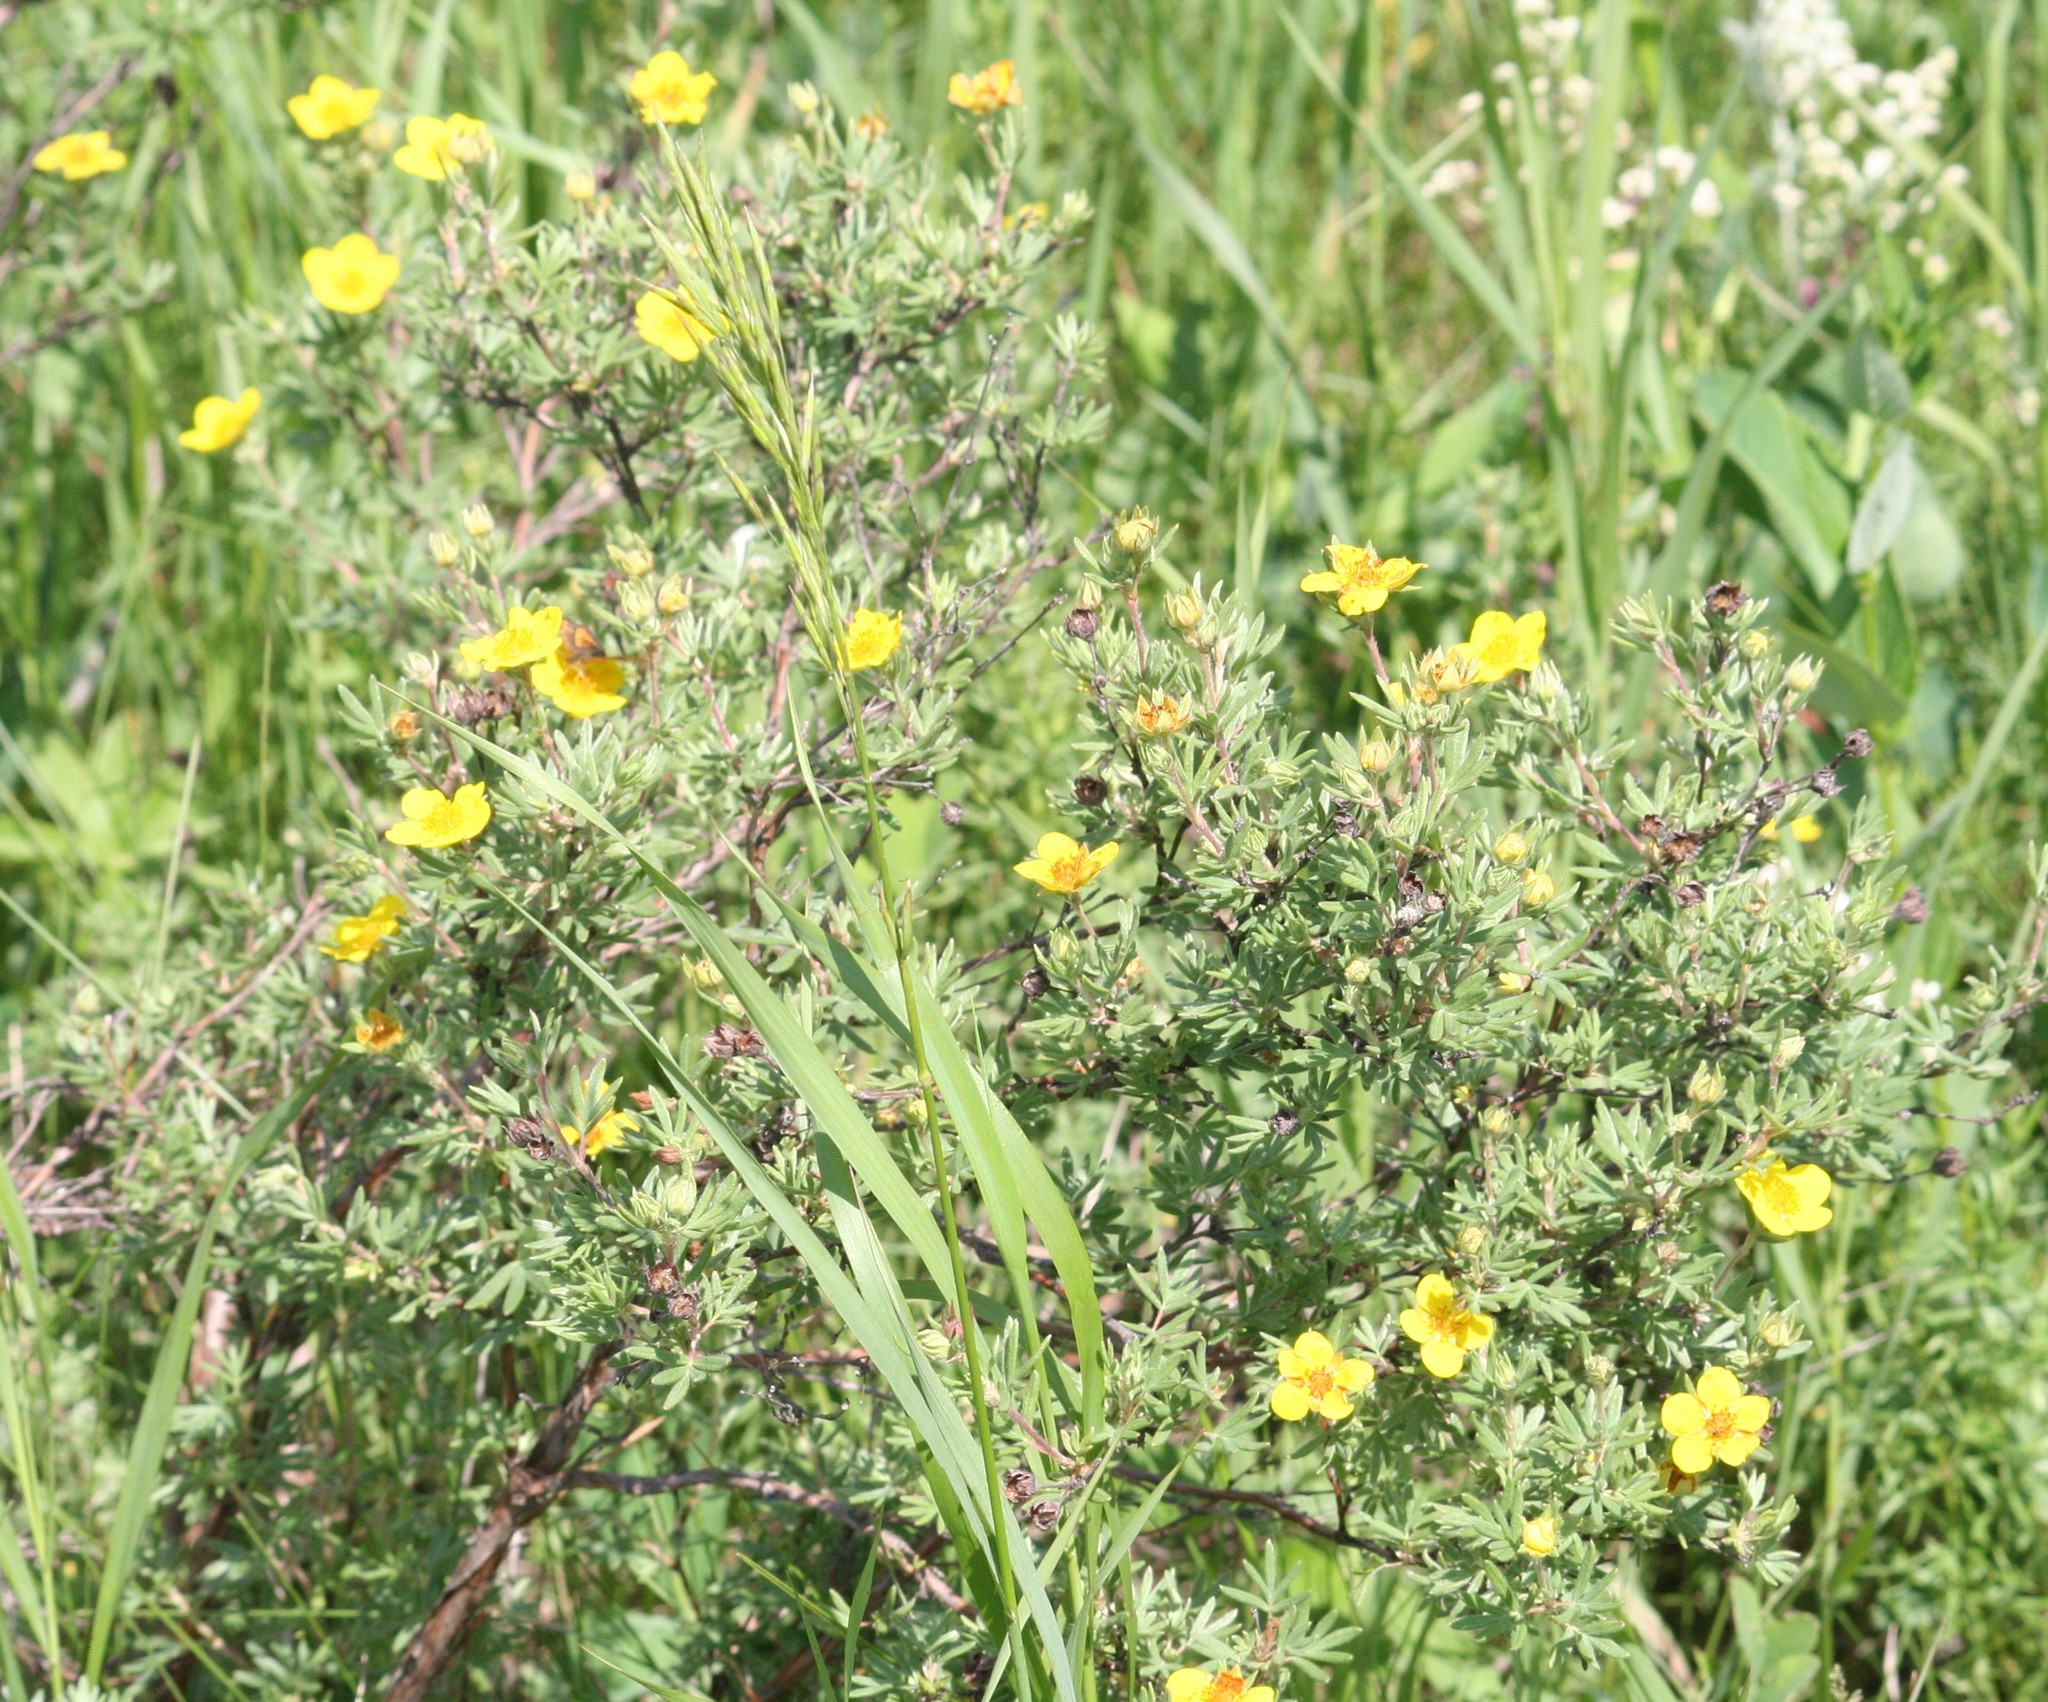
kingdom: Plantae
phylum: Tracheophyta
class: Magnoliopsida
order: Rosales
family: Rosaceae
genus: Dasiphora
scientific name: Dasiphora fruticosa
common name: Shrubby cinquefoil
